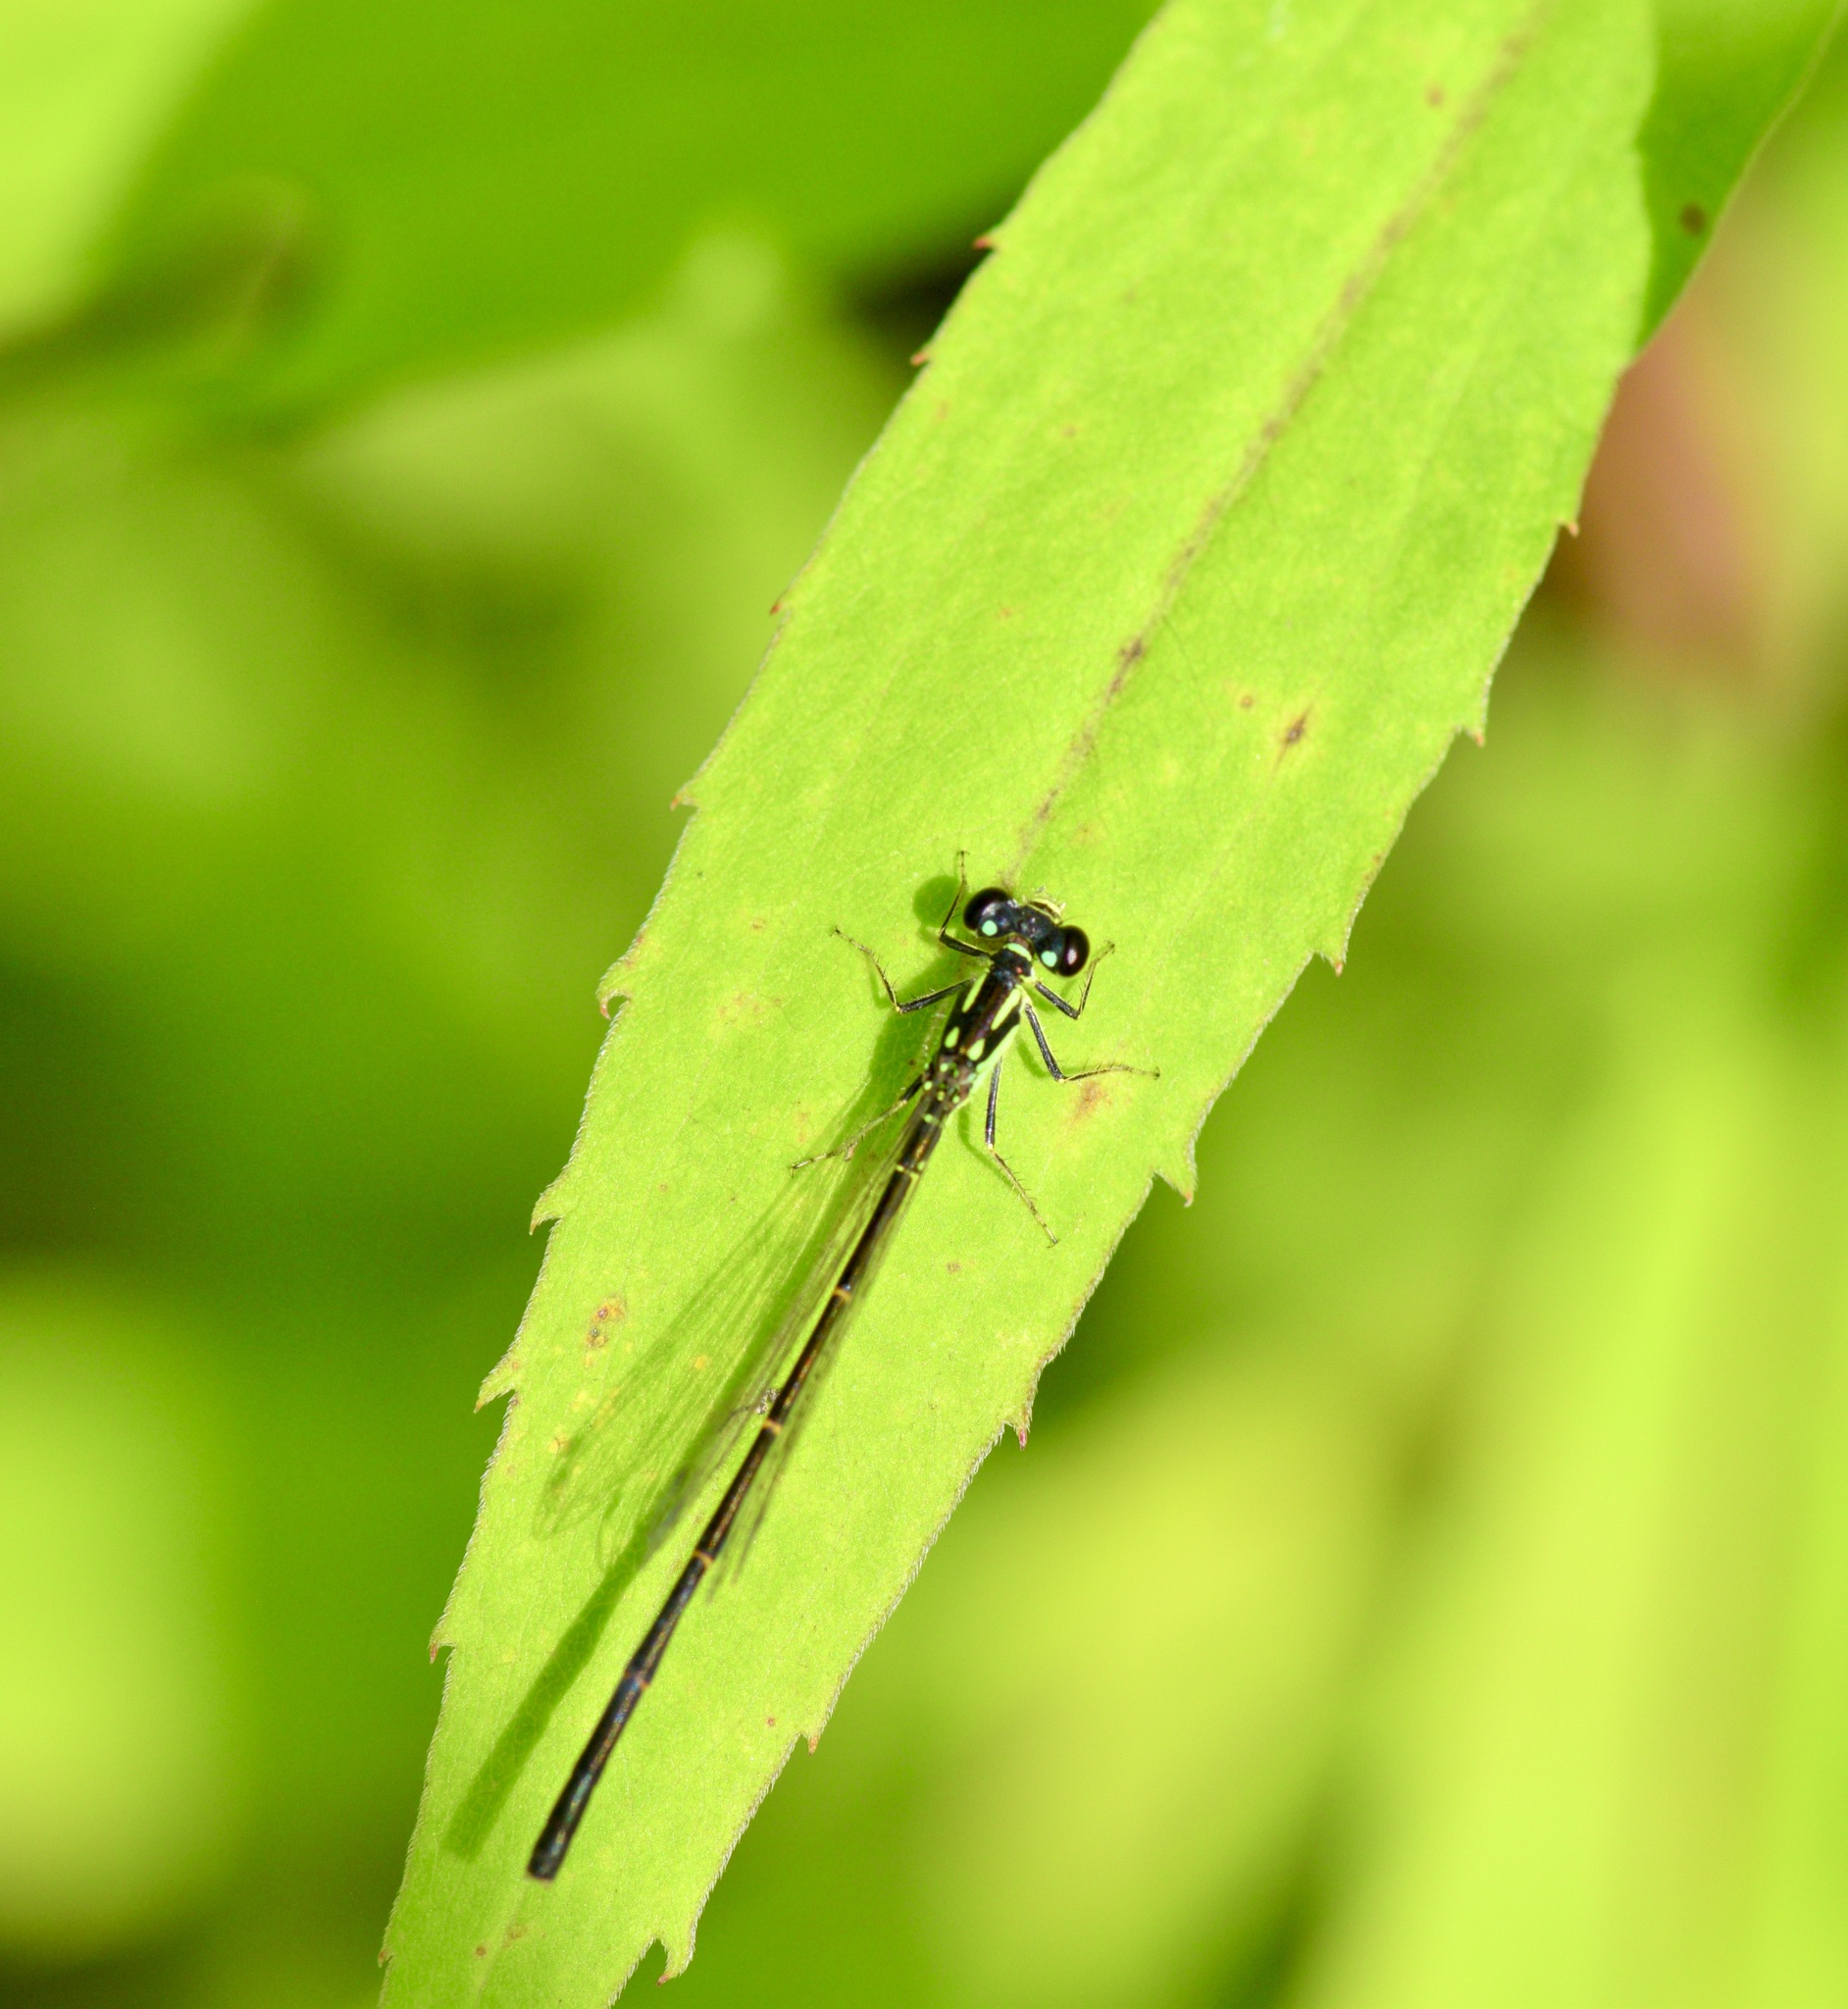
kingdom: Animalia
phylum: Arthropoda
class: Insecta
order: Odonata
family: Coenagrionidae
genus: Ischnura
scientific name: Ischnura posita
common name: Fragile forktail
